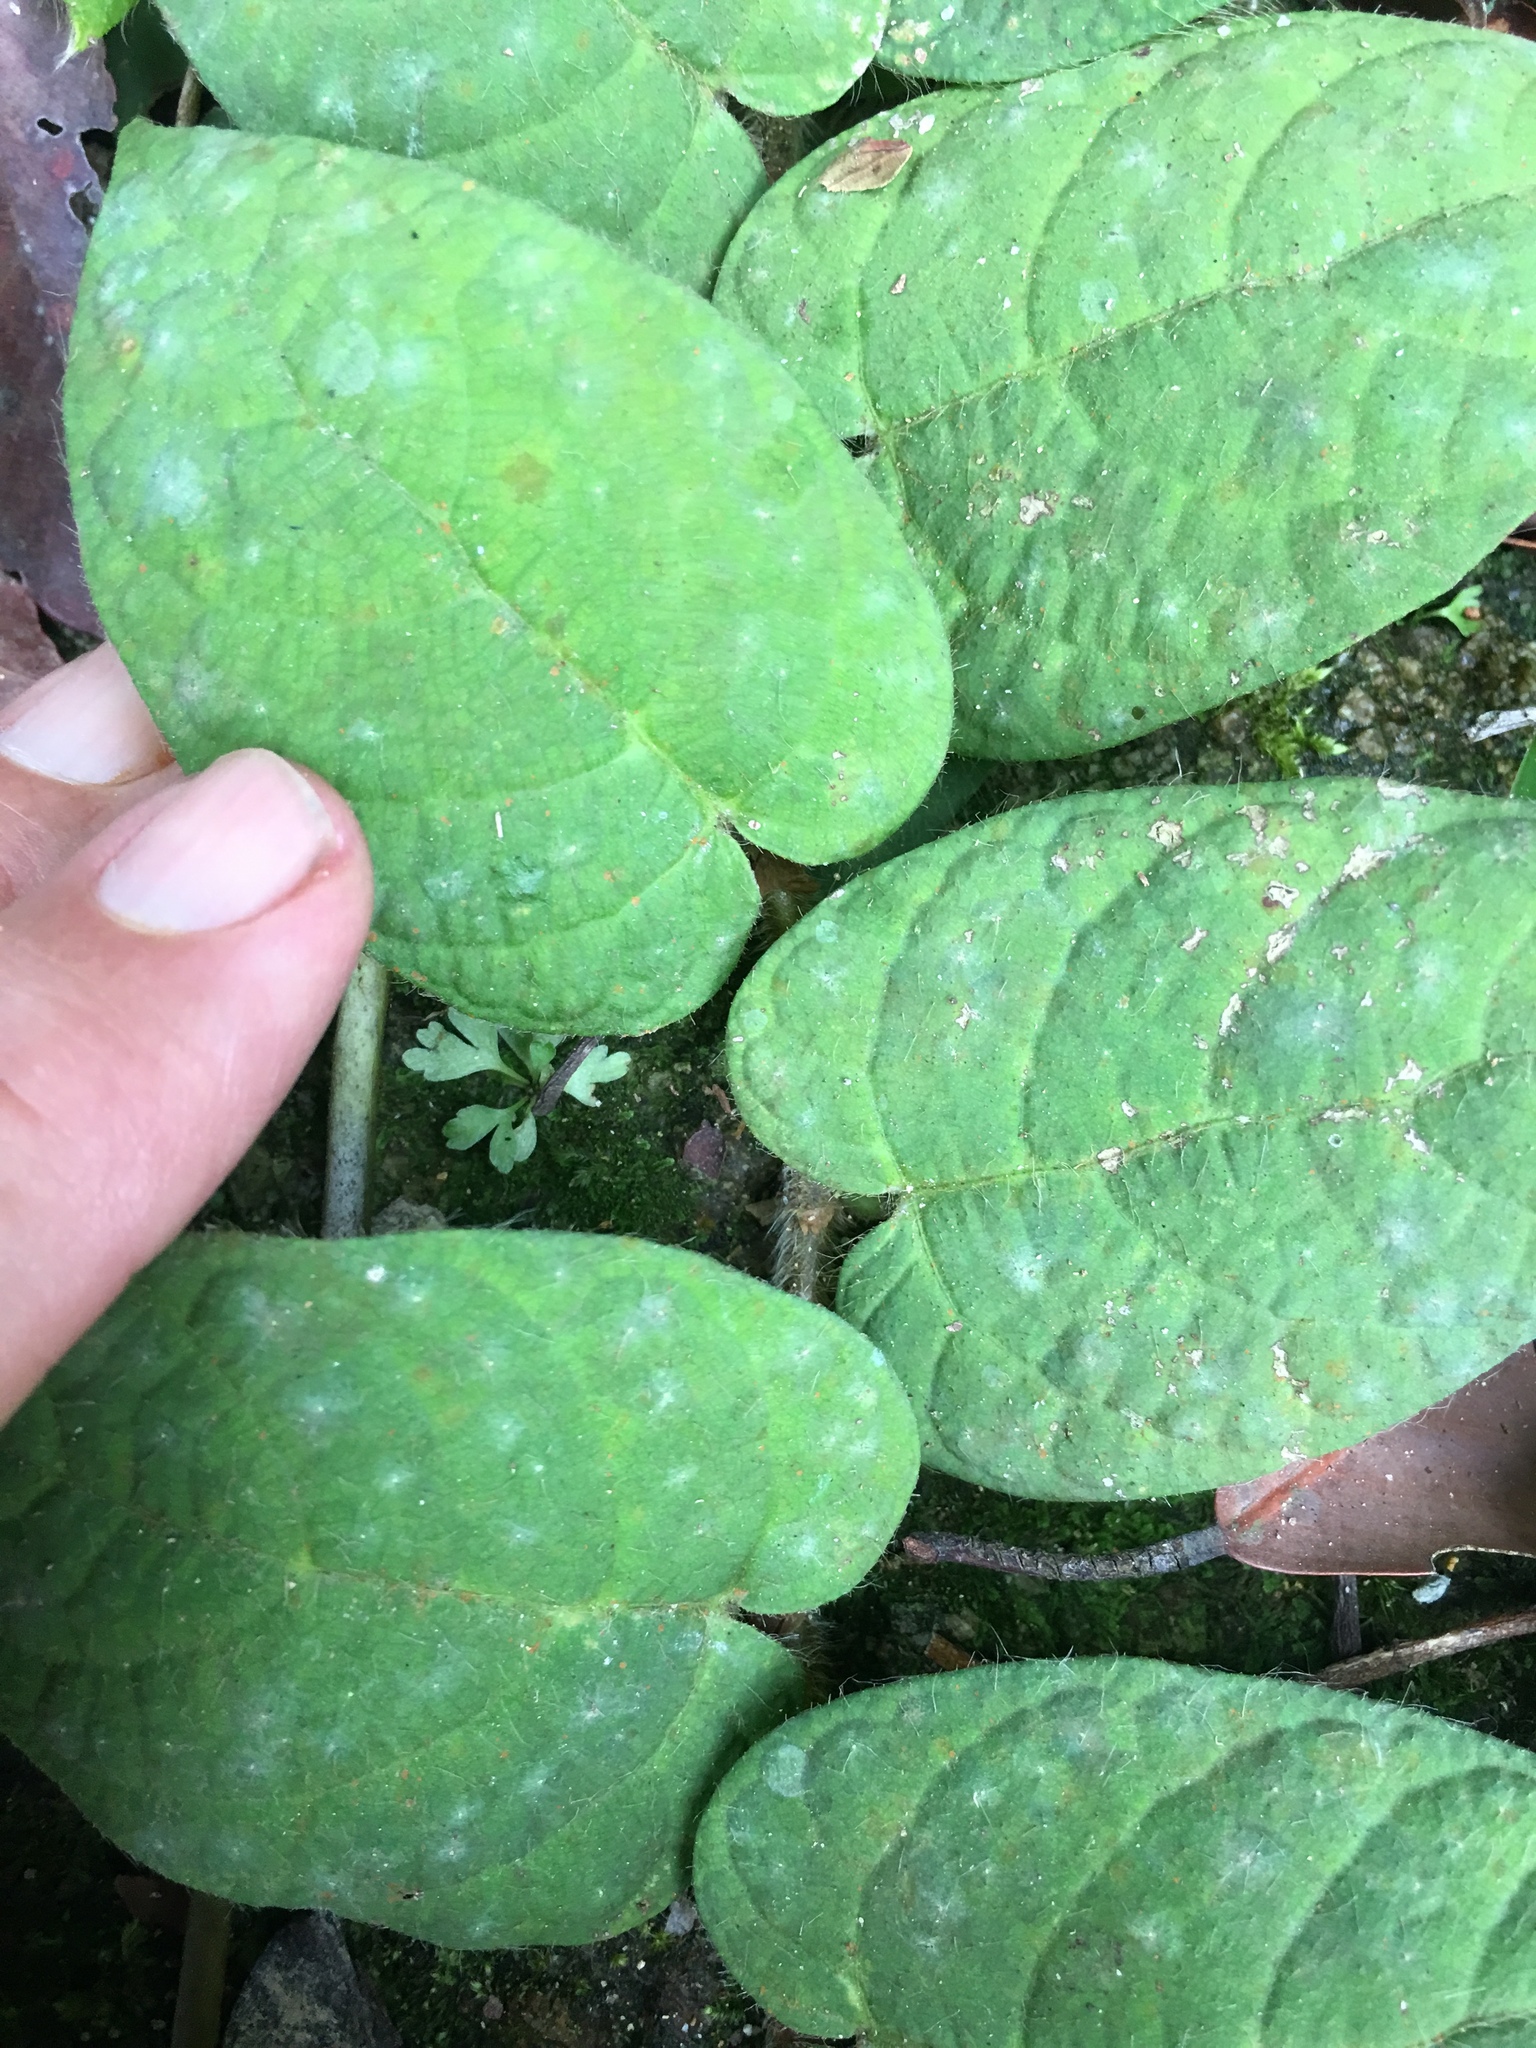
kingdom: Plantae
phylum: Tracheophyta
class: Magnoliopsida
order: Rosales
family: Moraceae
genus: Ficus
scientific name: Ficus villosa
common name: Villous fig
